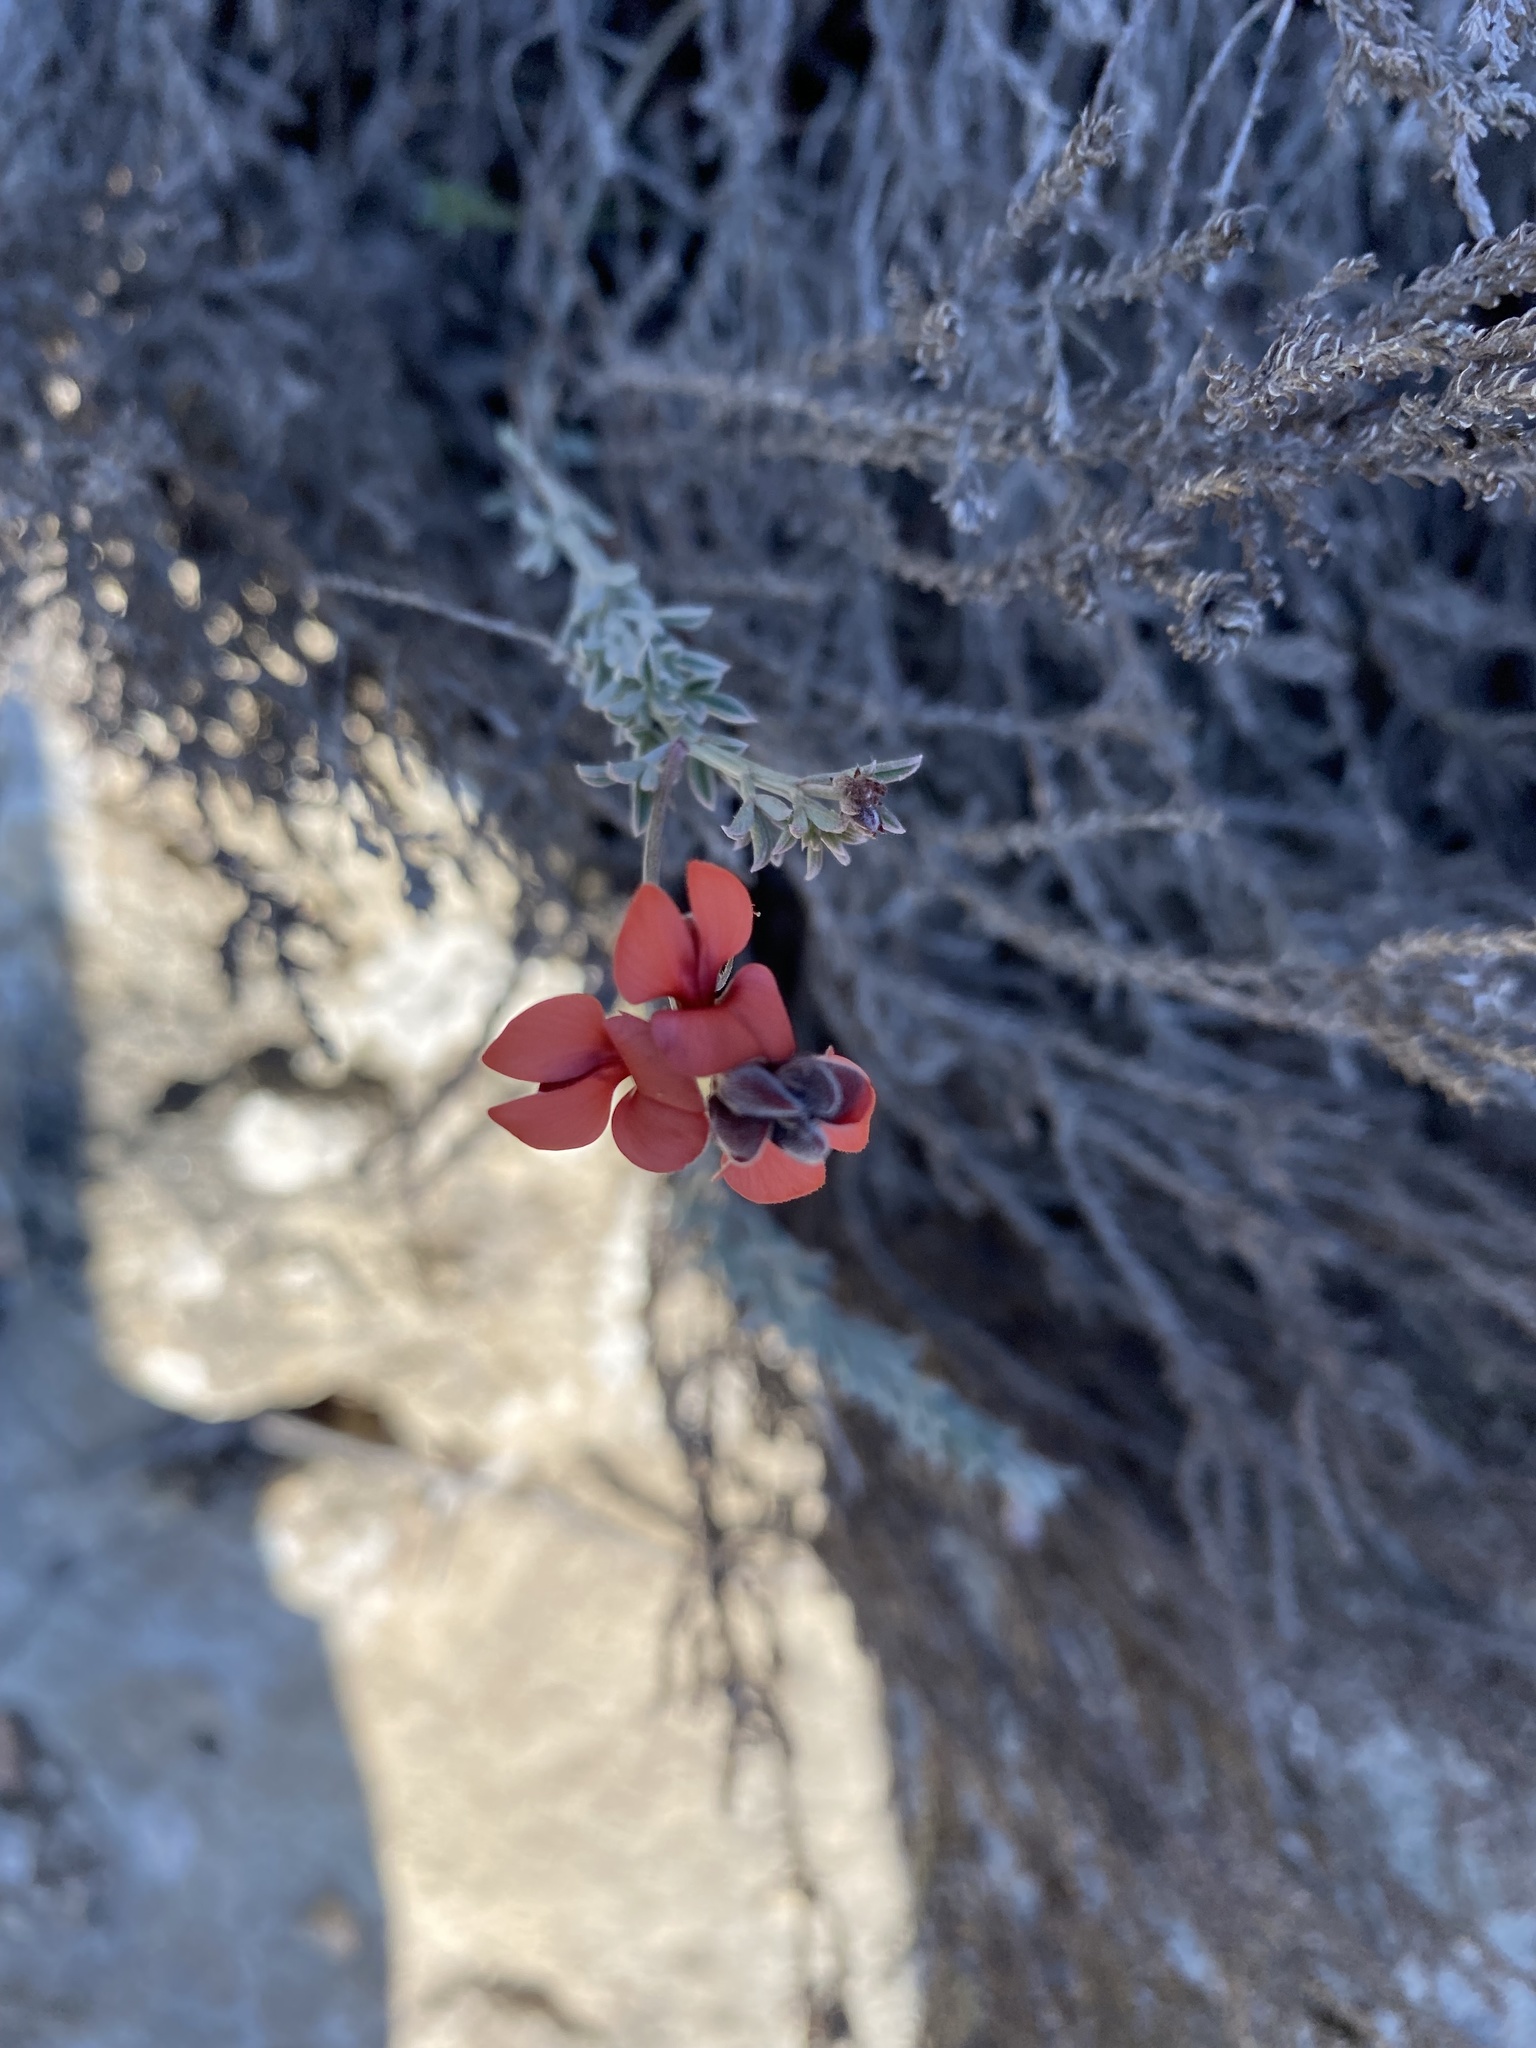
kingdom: Plantae
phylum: Tracheophyta
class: Magnoliopsida
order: Fabales
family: Fabaceae
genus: Indigofera
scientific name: Indigofera
